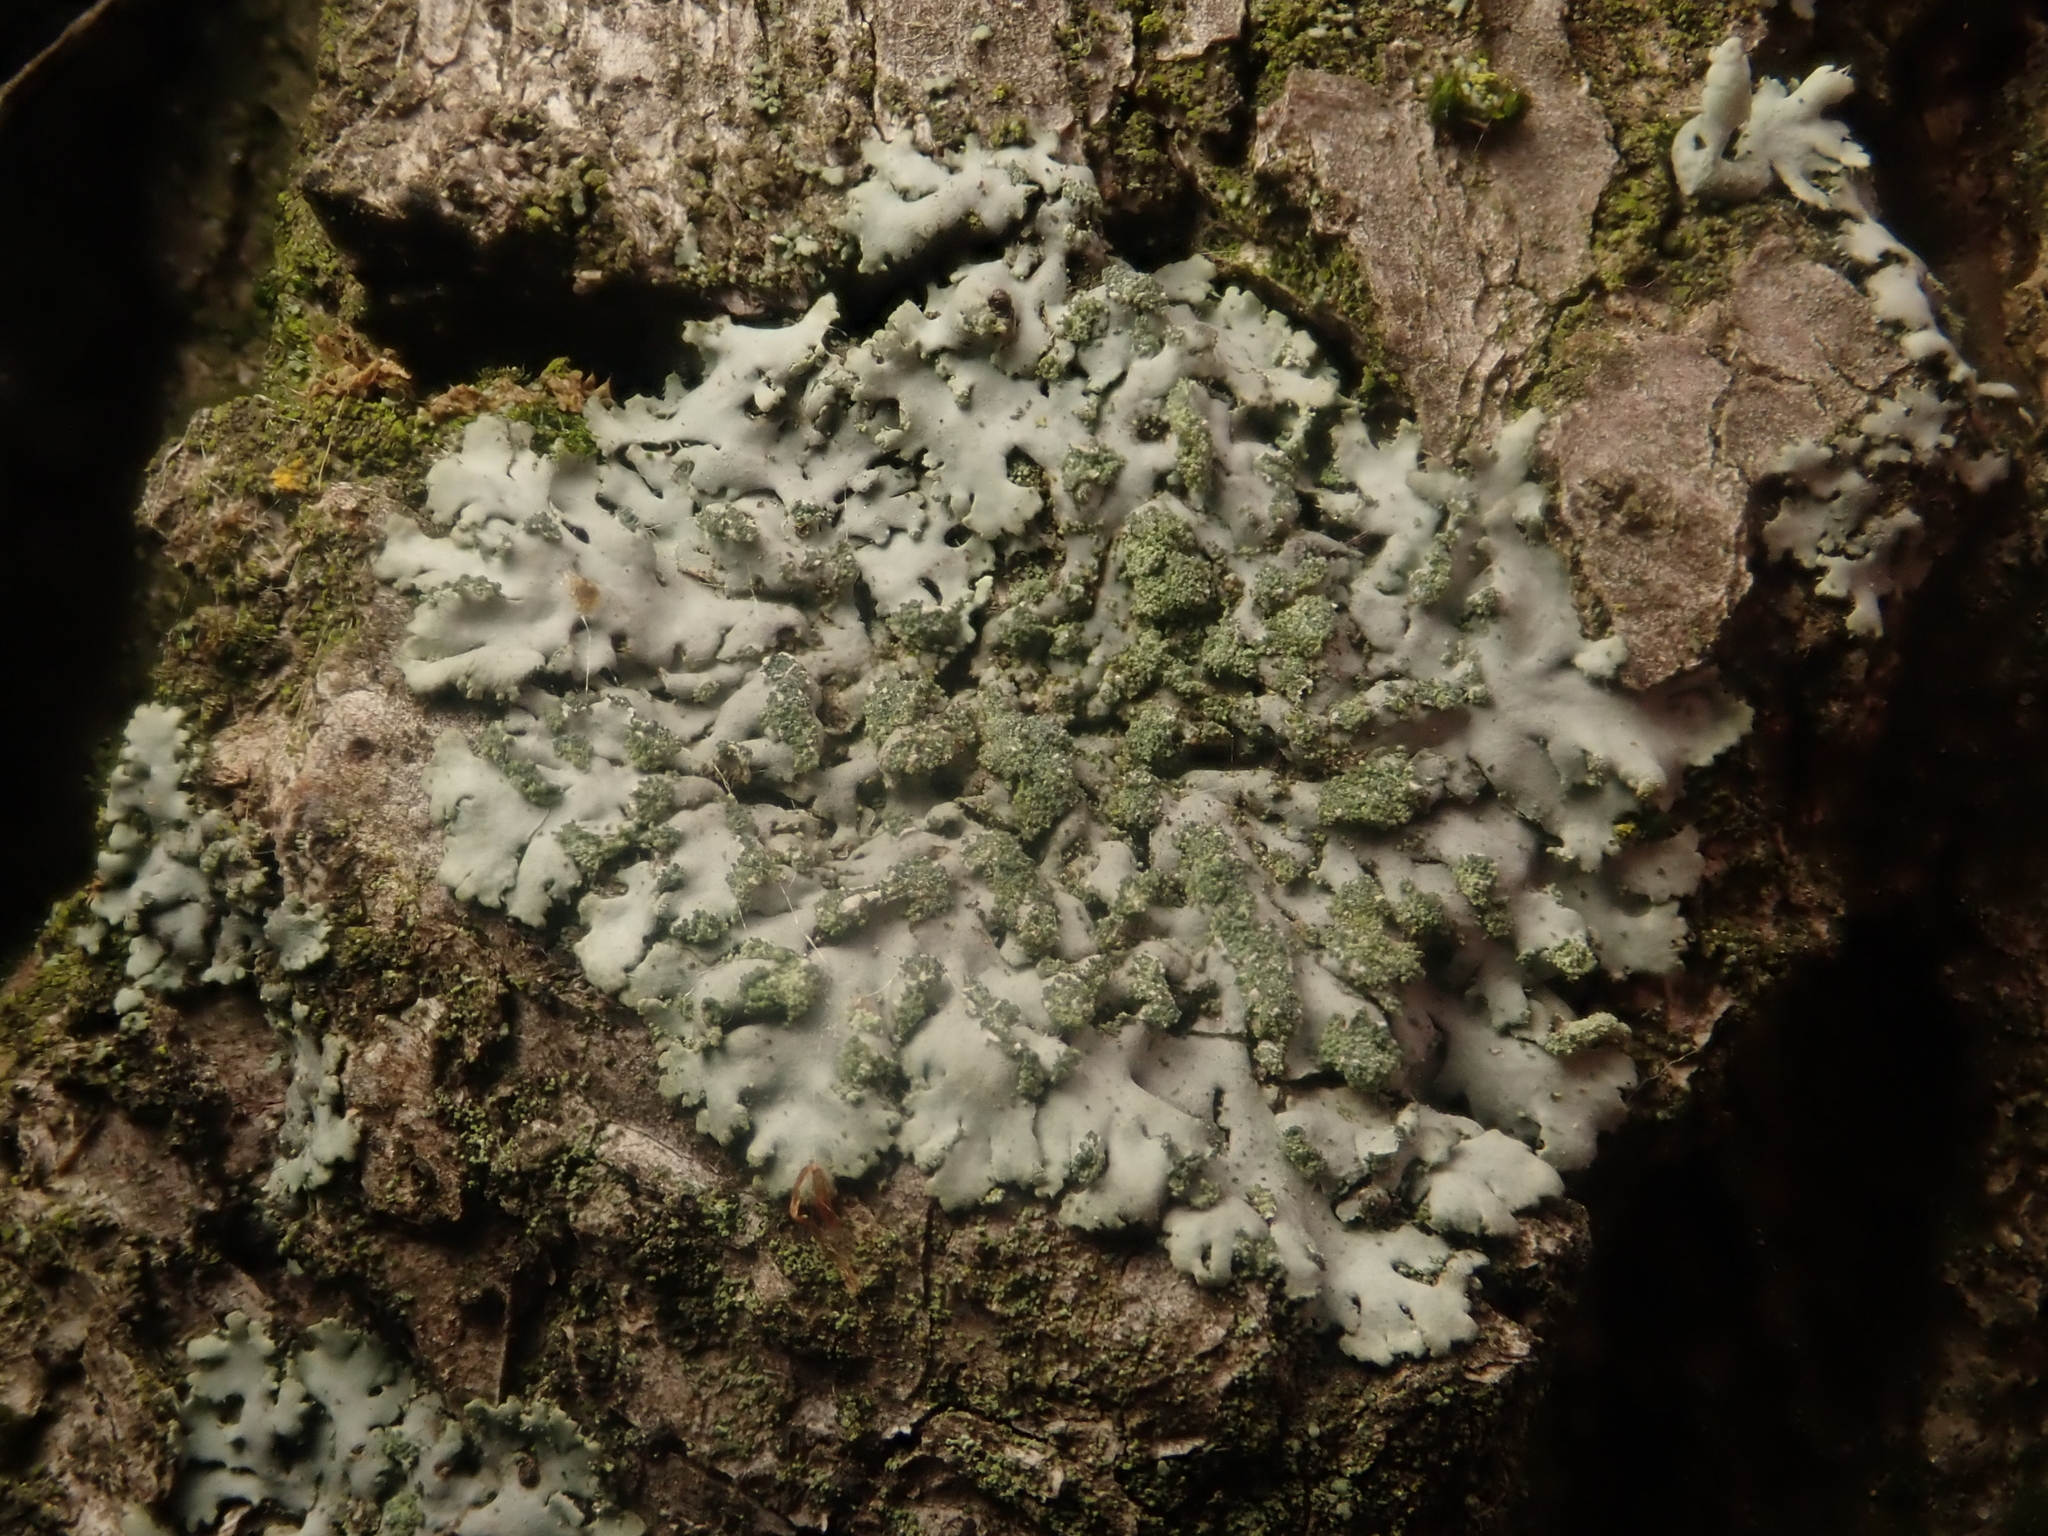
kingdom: Fungi
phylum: Ascomycota
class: Lecanoromycetes
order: Caliciales
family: Physciaceae
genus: Phaeophyscia
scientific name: Phaeophyscia orbicularis
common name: Mealy shadow lichen
